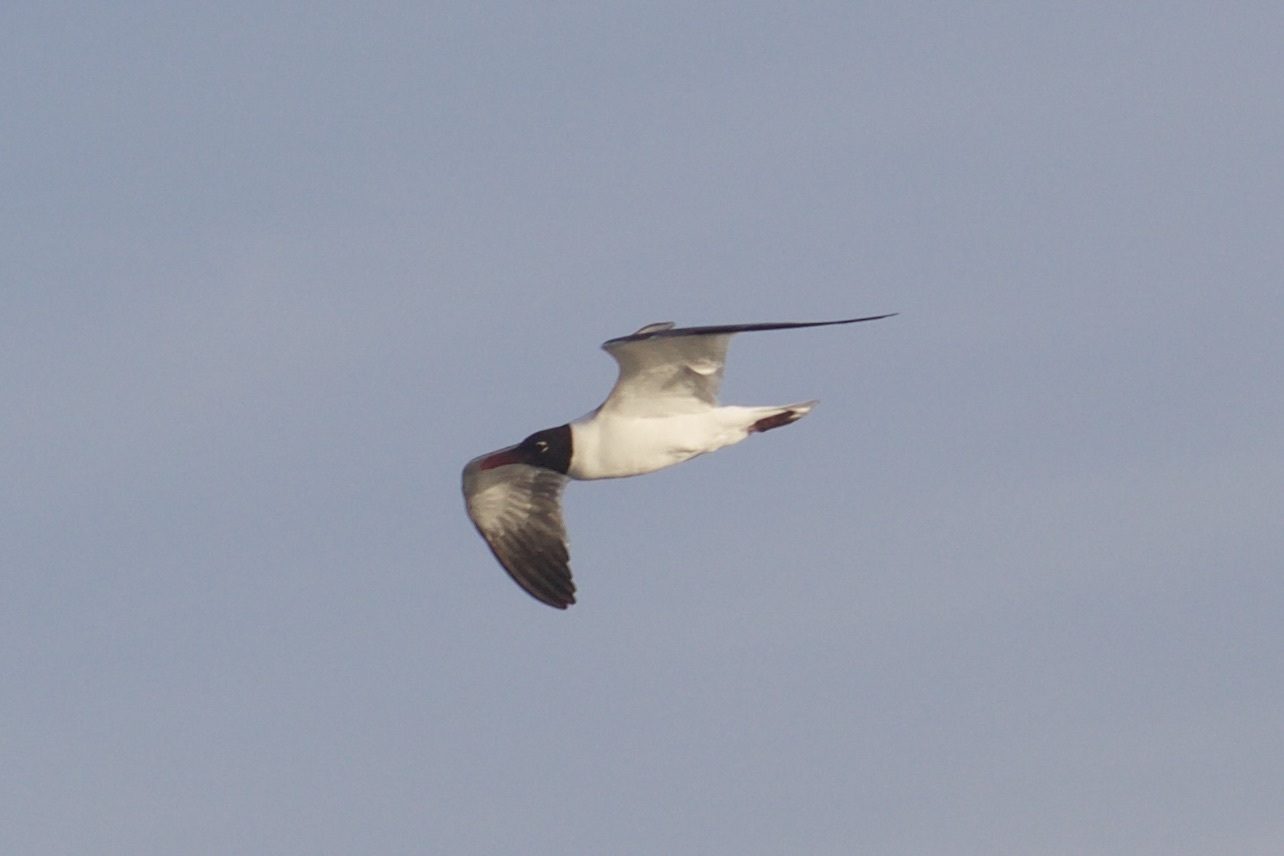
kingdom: Animalia
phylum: Chordata
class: Aves
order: Charadriiformes
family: Laridae
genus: Leucophaeus
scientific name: Leucophaeus atricilla
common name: Laughing gull
